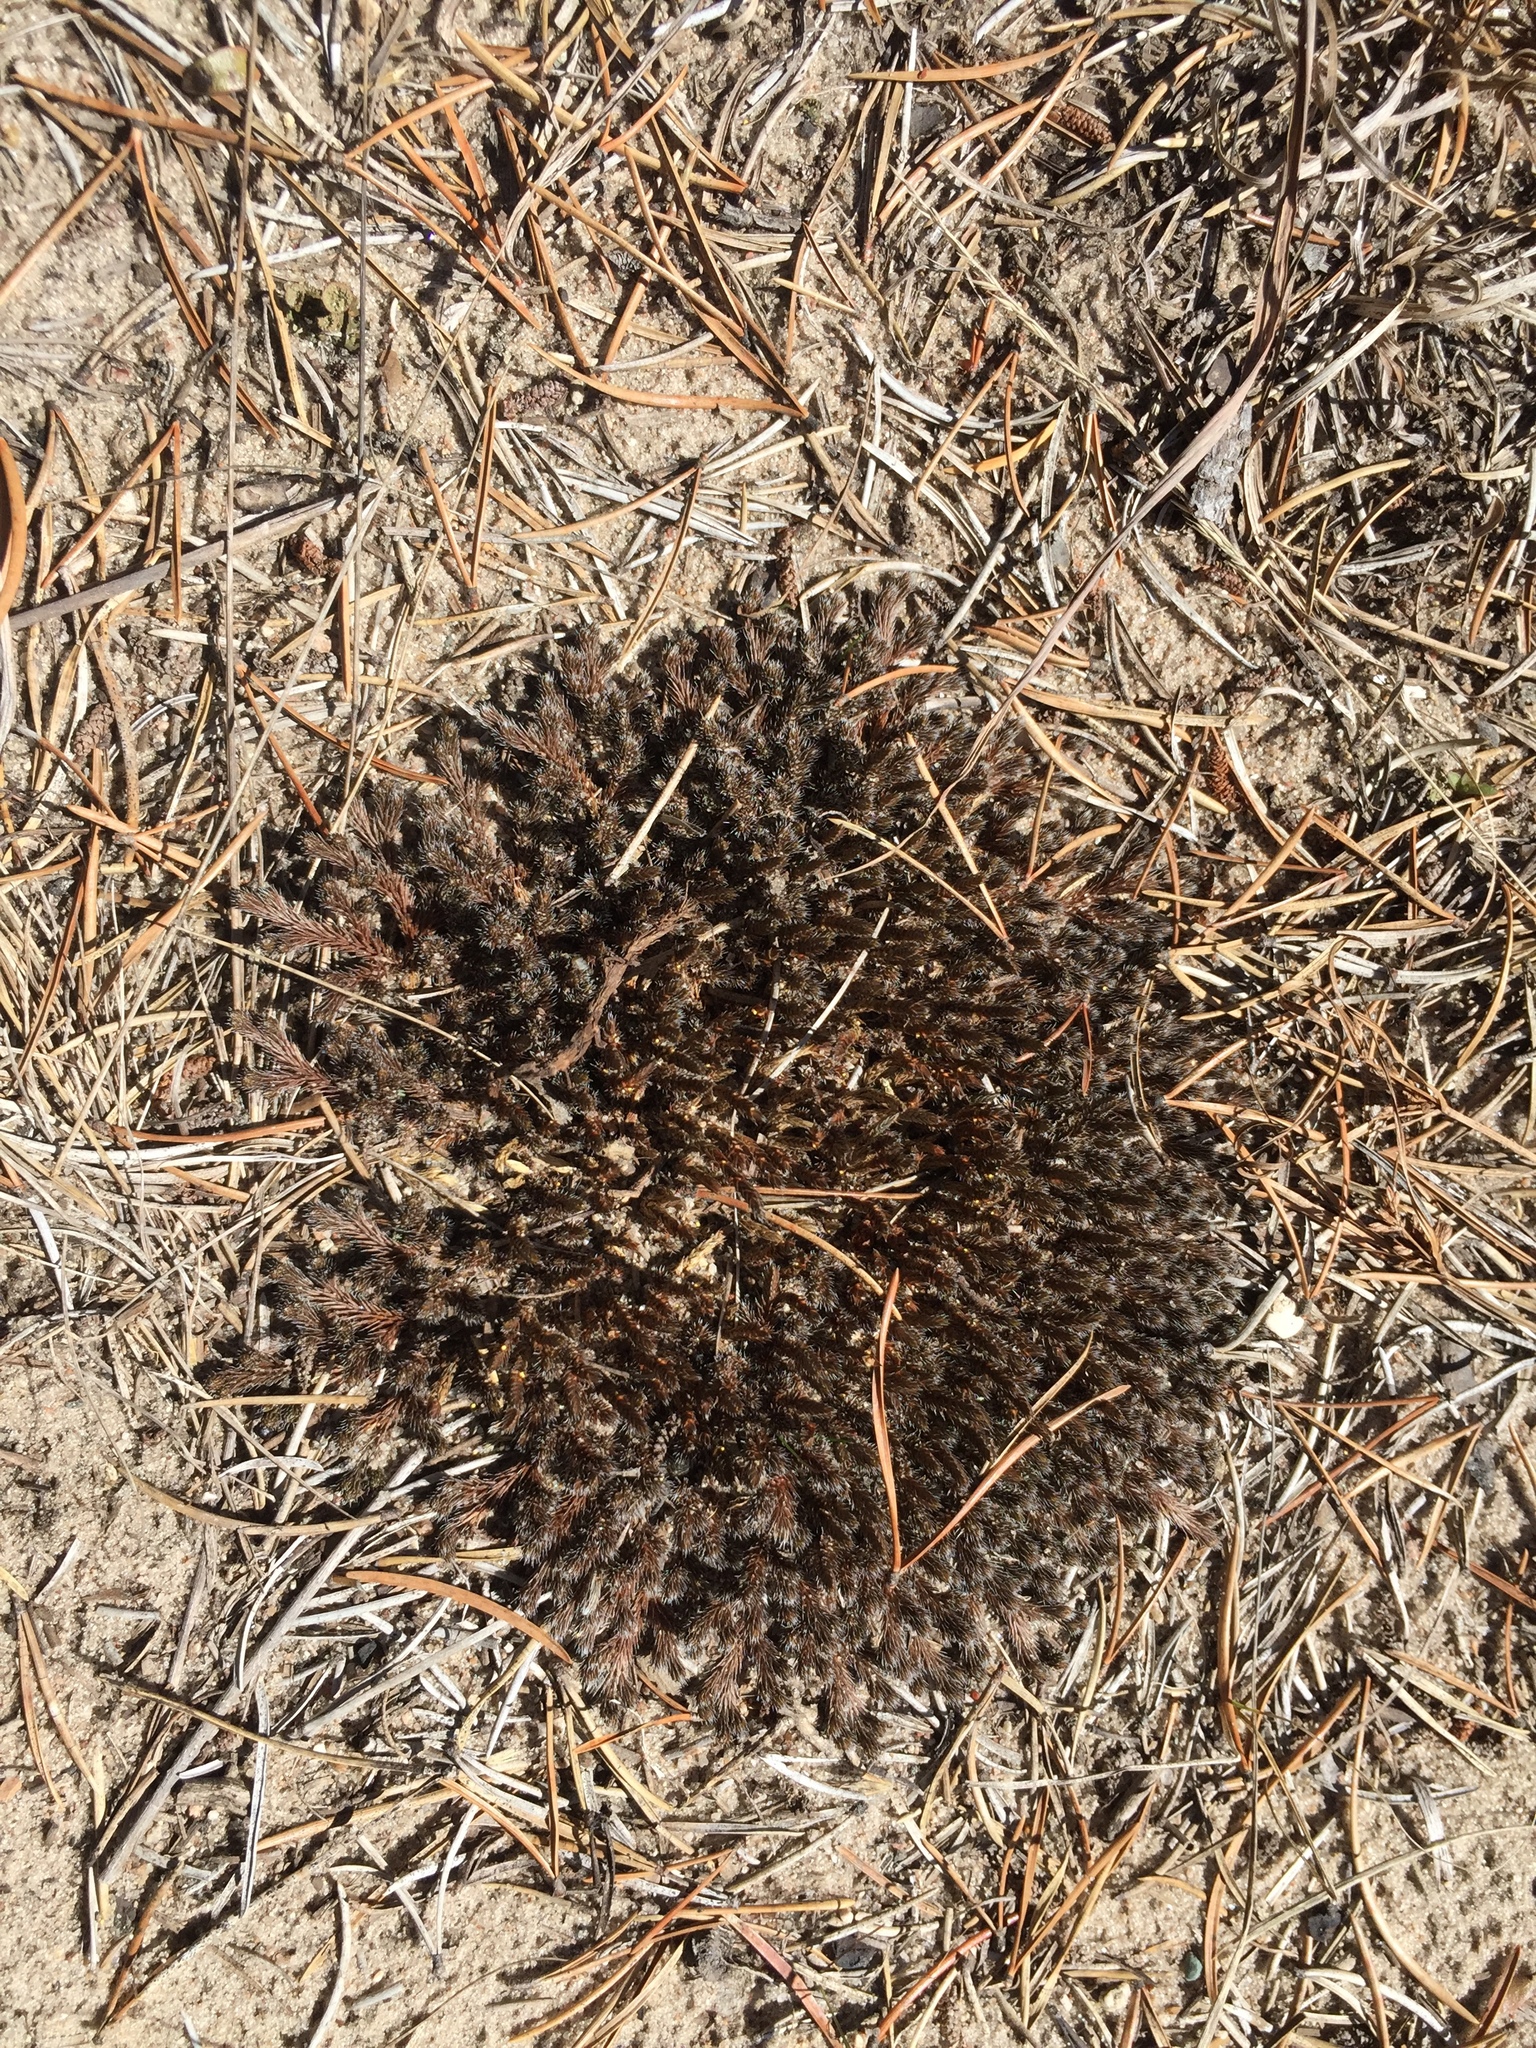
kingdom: Plantae
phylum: Tracheophyta
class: Lycopodiopsida
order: Selaginellales
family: Selaginellaceae
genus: Selaginella
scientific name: Selaginella densa
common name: Mountain spike-moss
